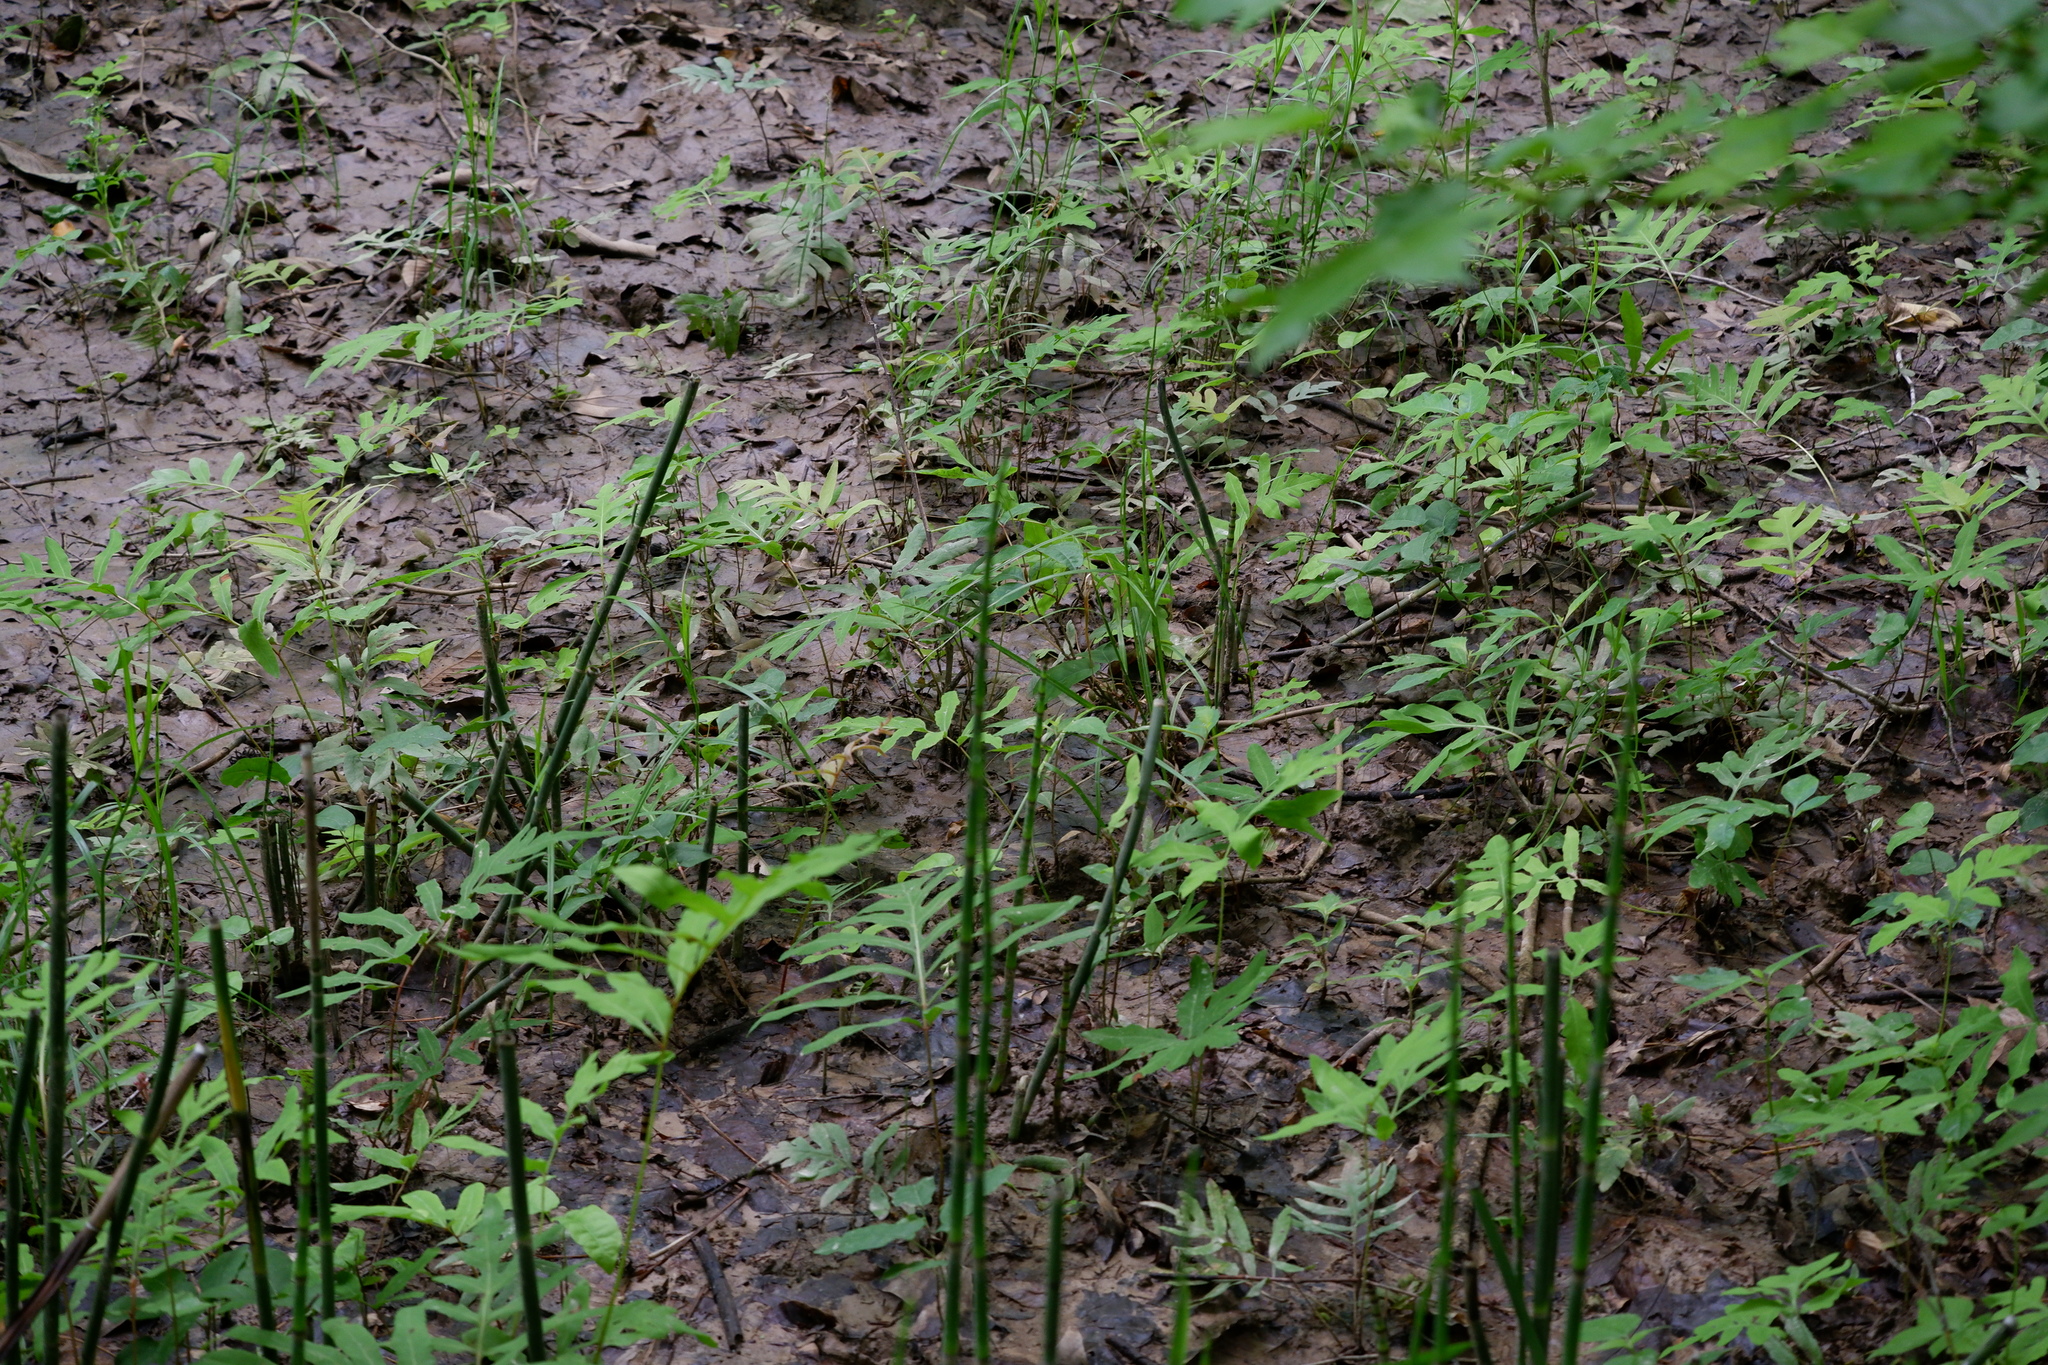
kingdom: Plantae
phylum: Tracheophyta
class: Polypodiopsida
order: Polypodiales
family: Onocleaceae
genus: Onoclea
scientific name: Onoclea sensibilis
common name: Sensitive fern
